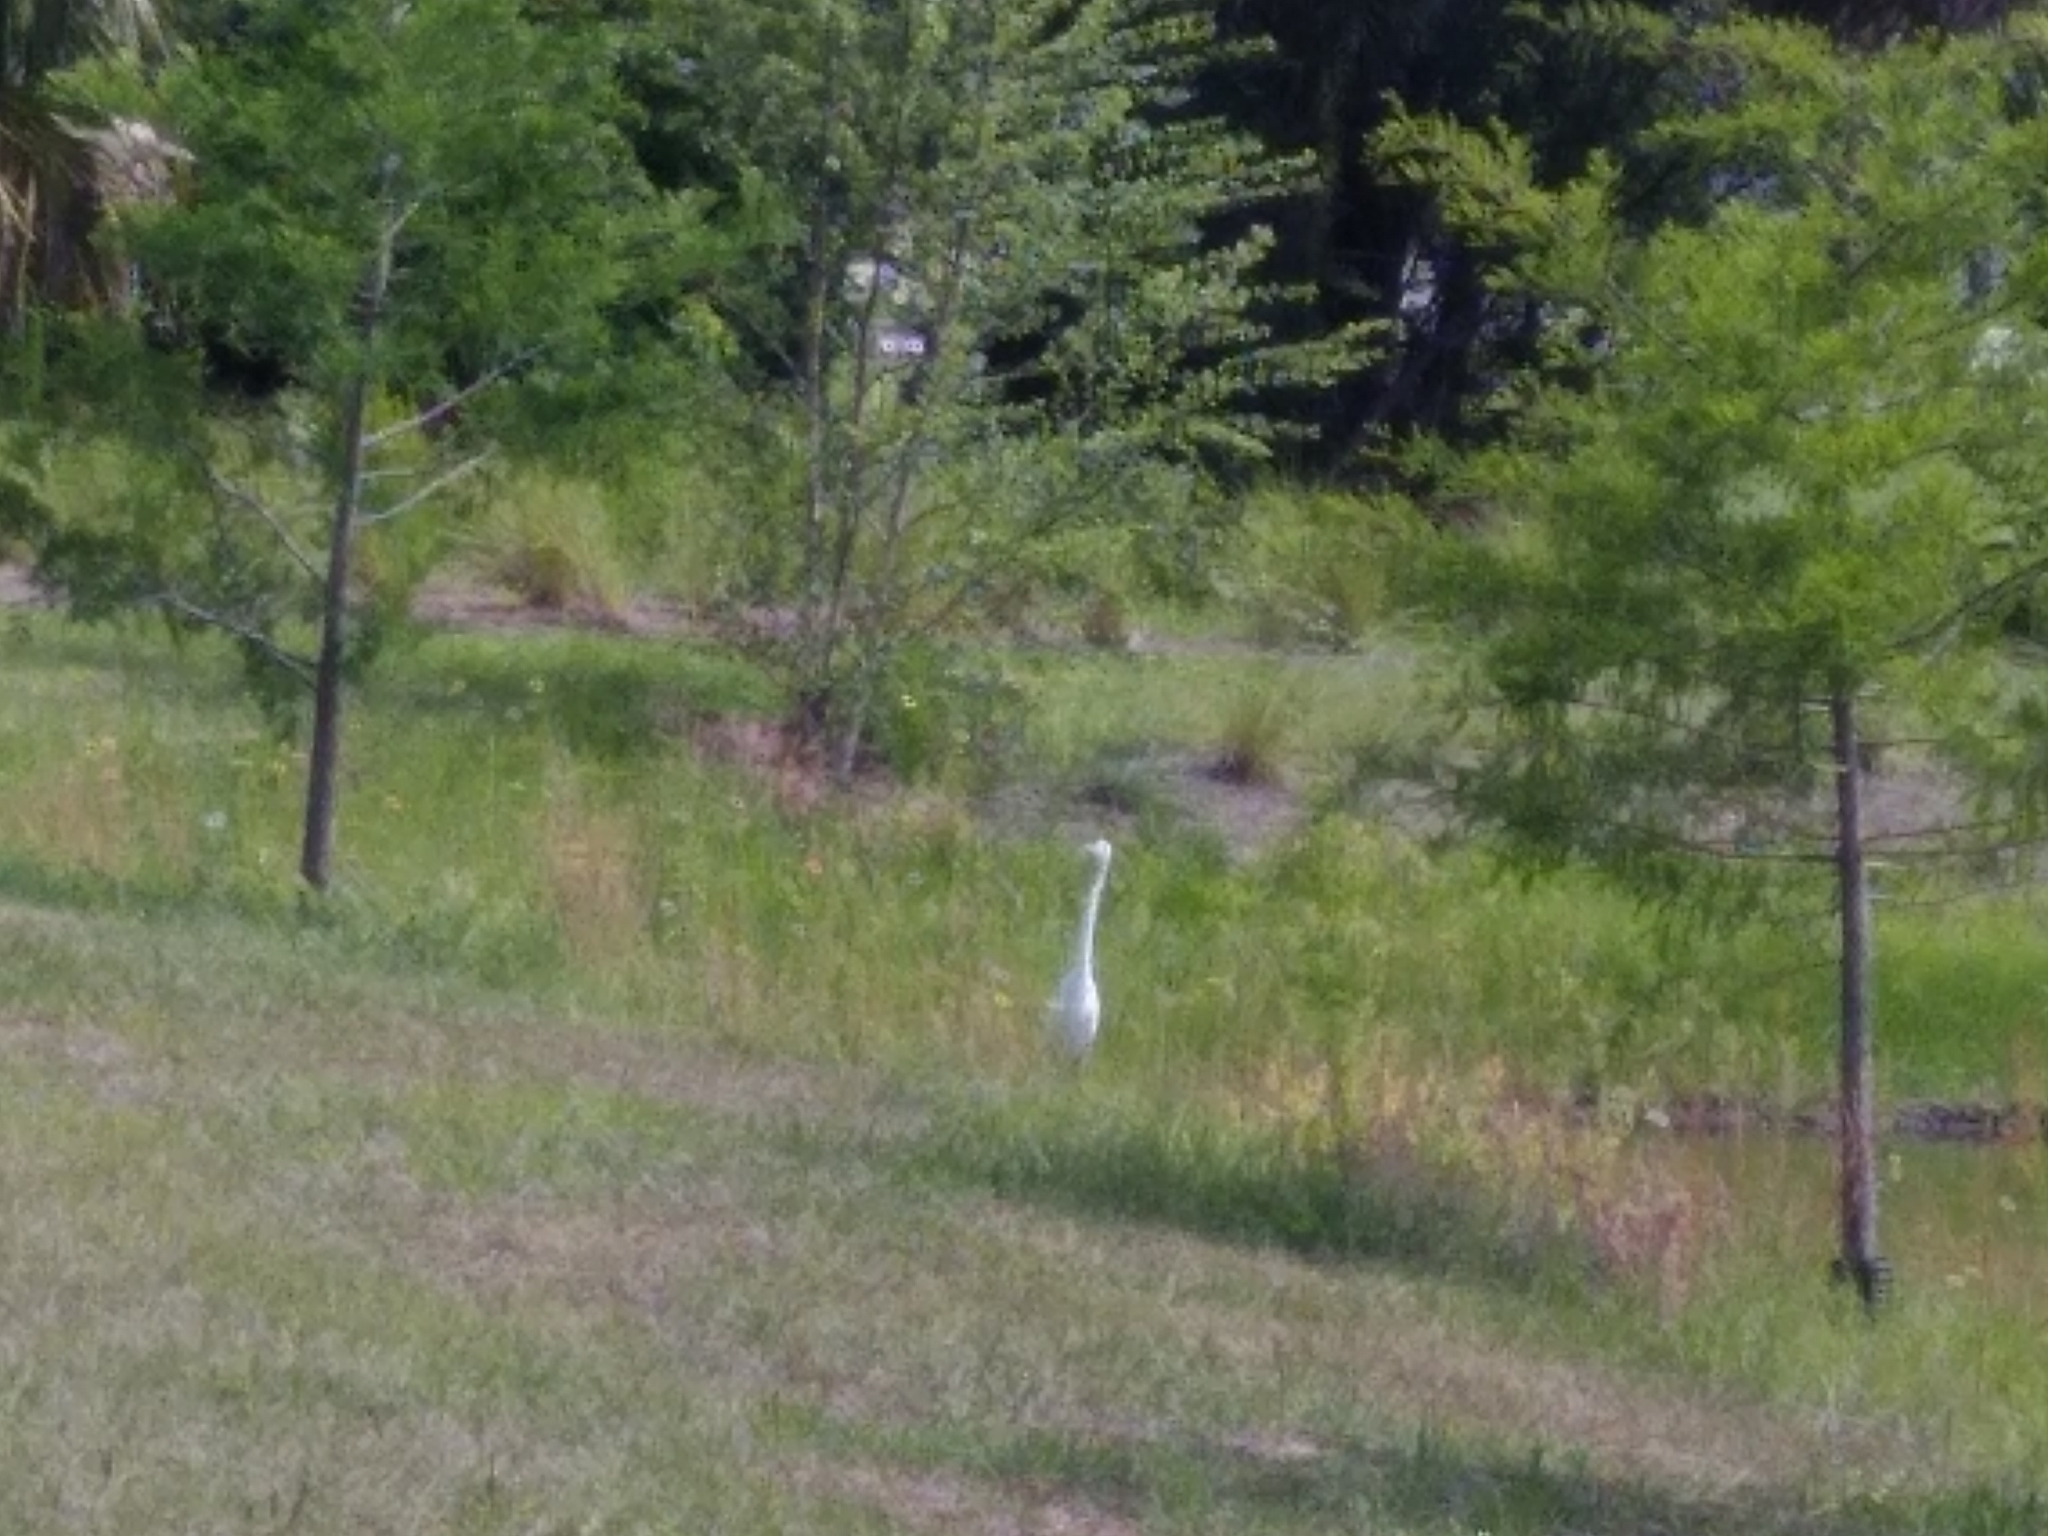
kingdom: Animalia
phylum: Chordata
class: Aves
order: Pelecaniformes
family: Ardeidae
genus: Ardea
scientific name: Ardea alba
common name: Great egret
